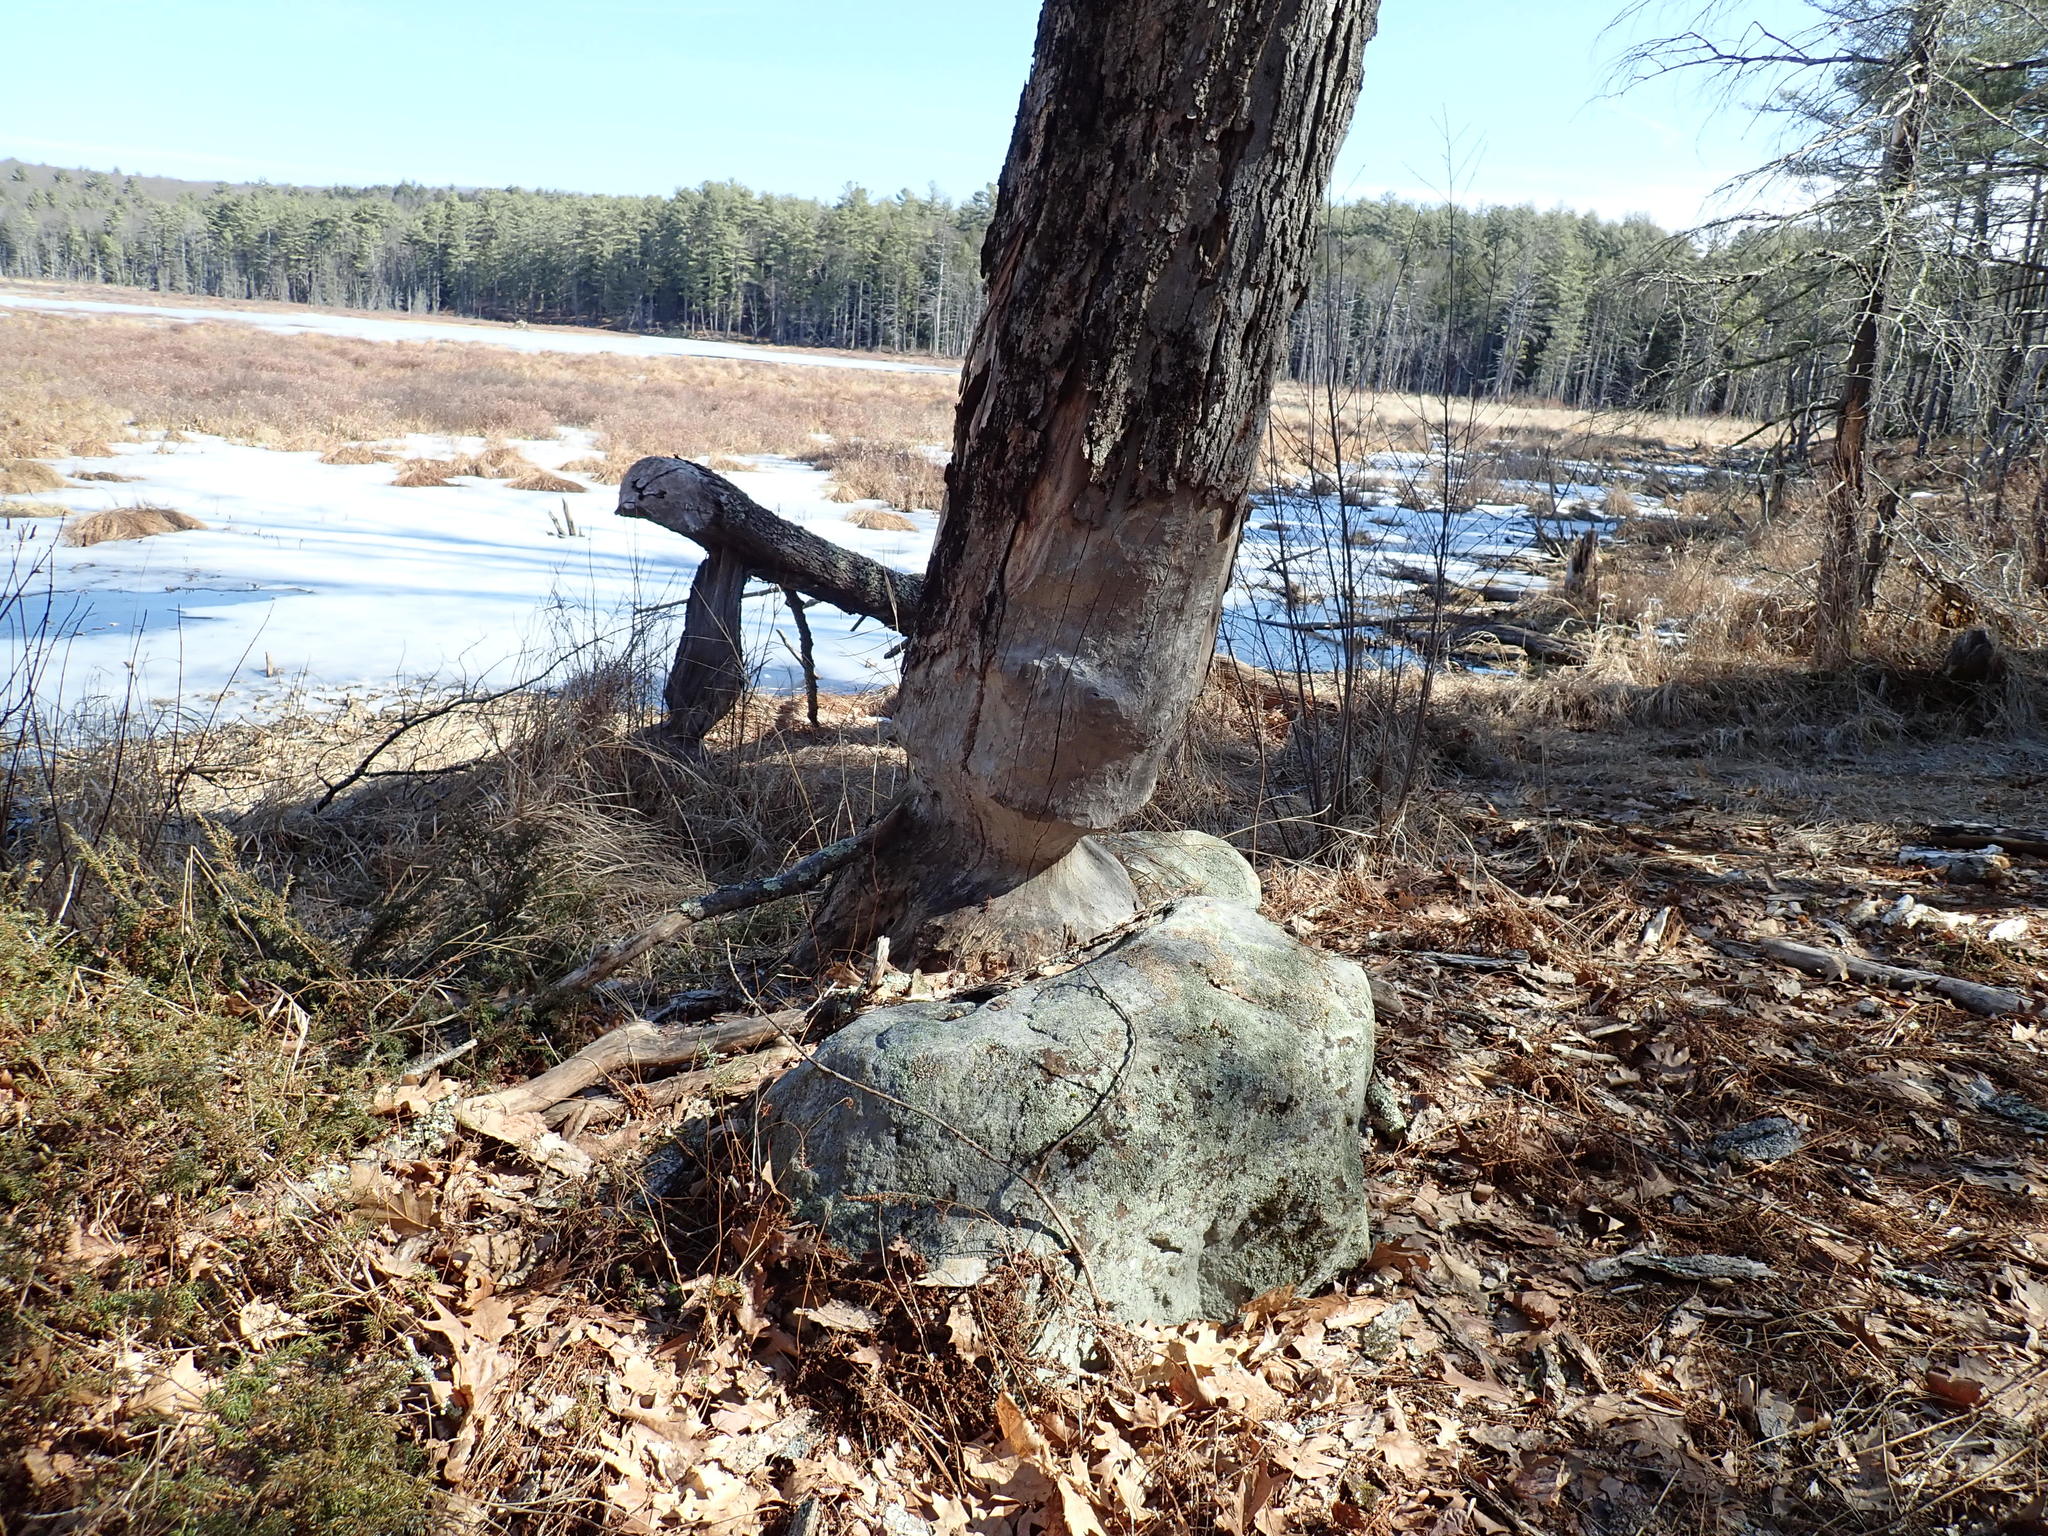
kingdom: Animalia
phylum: Chordata
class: Mammalia
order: Rodentia
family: Castoridae
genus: Castor
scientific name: Castor canadensis
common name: American beaver
